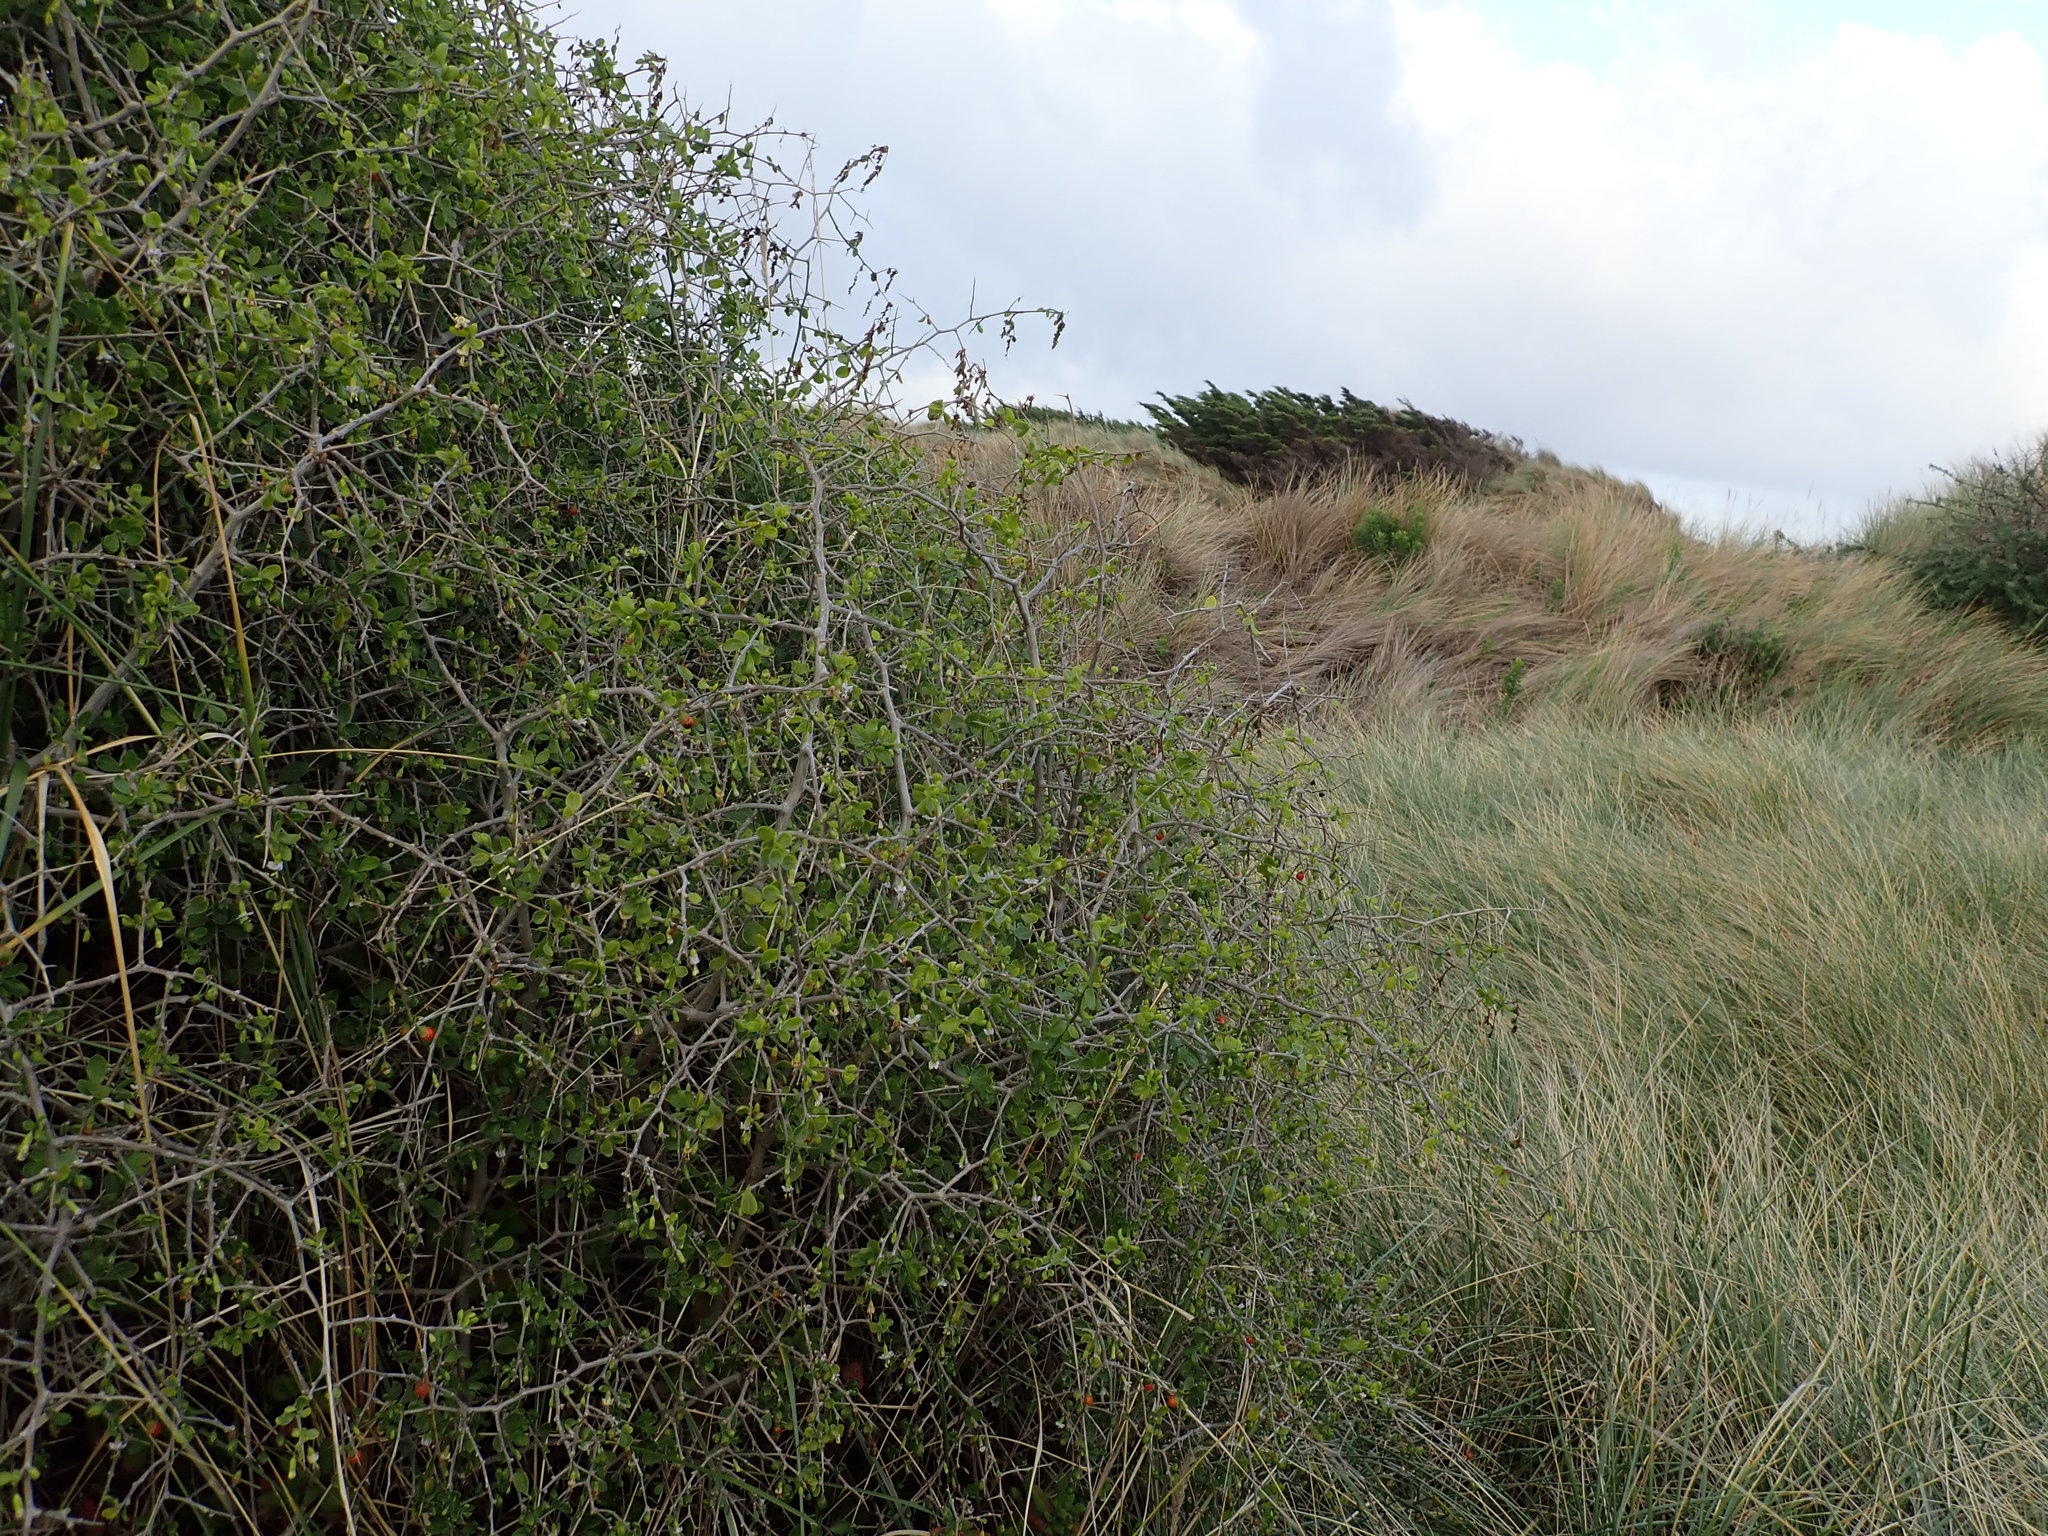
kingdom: Plantae
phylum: Tracheophyta
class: Magnoliopsida
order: Solanales
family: Solanaceae
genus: Lycium
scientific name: Lycium ferocissimum
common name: African boxthorn
